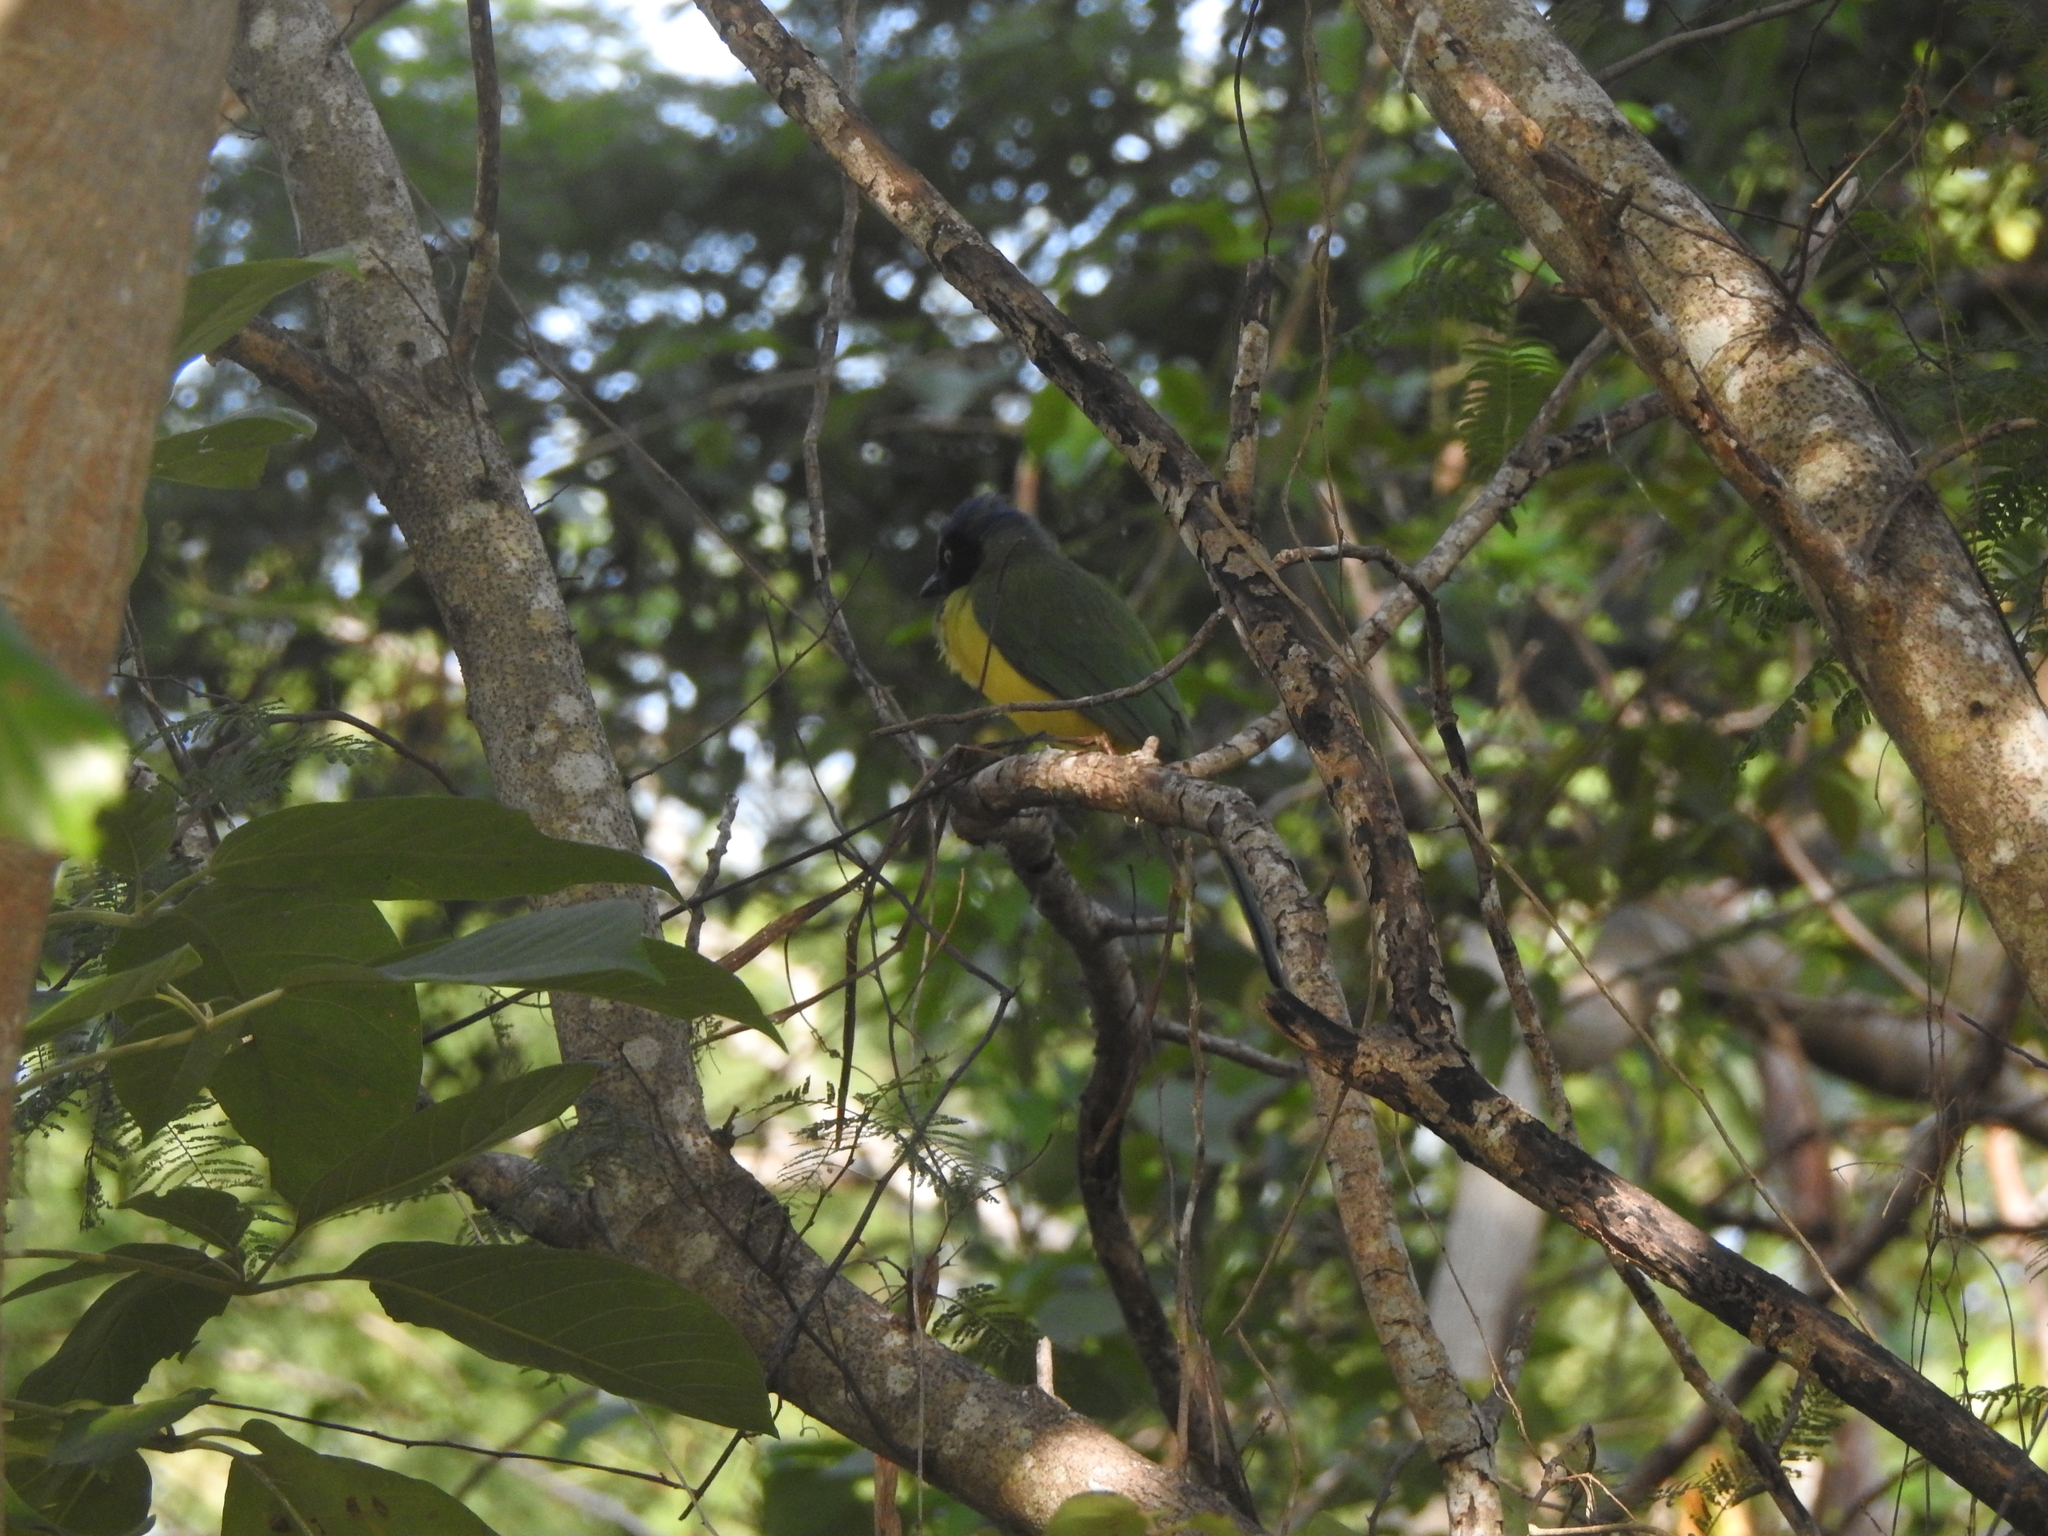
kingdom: Animalia
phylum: Chordata
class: Aves
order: Passeriformes
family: Corvidae
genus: Cyanocorax
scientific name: Cyanocorax yncas
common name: Green jay
